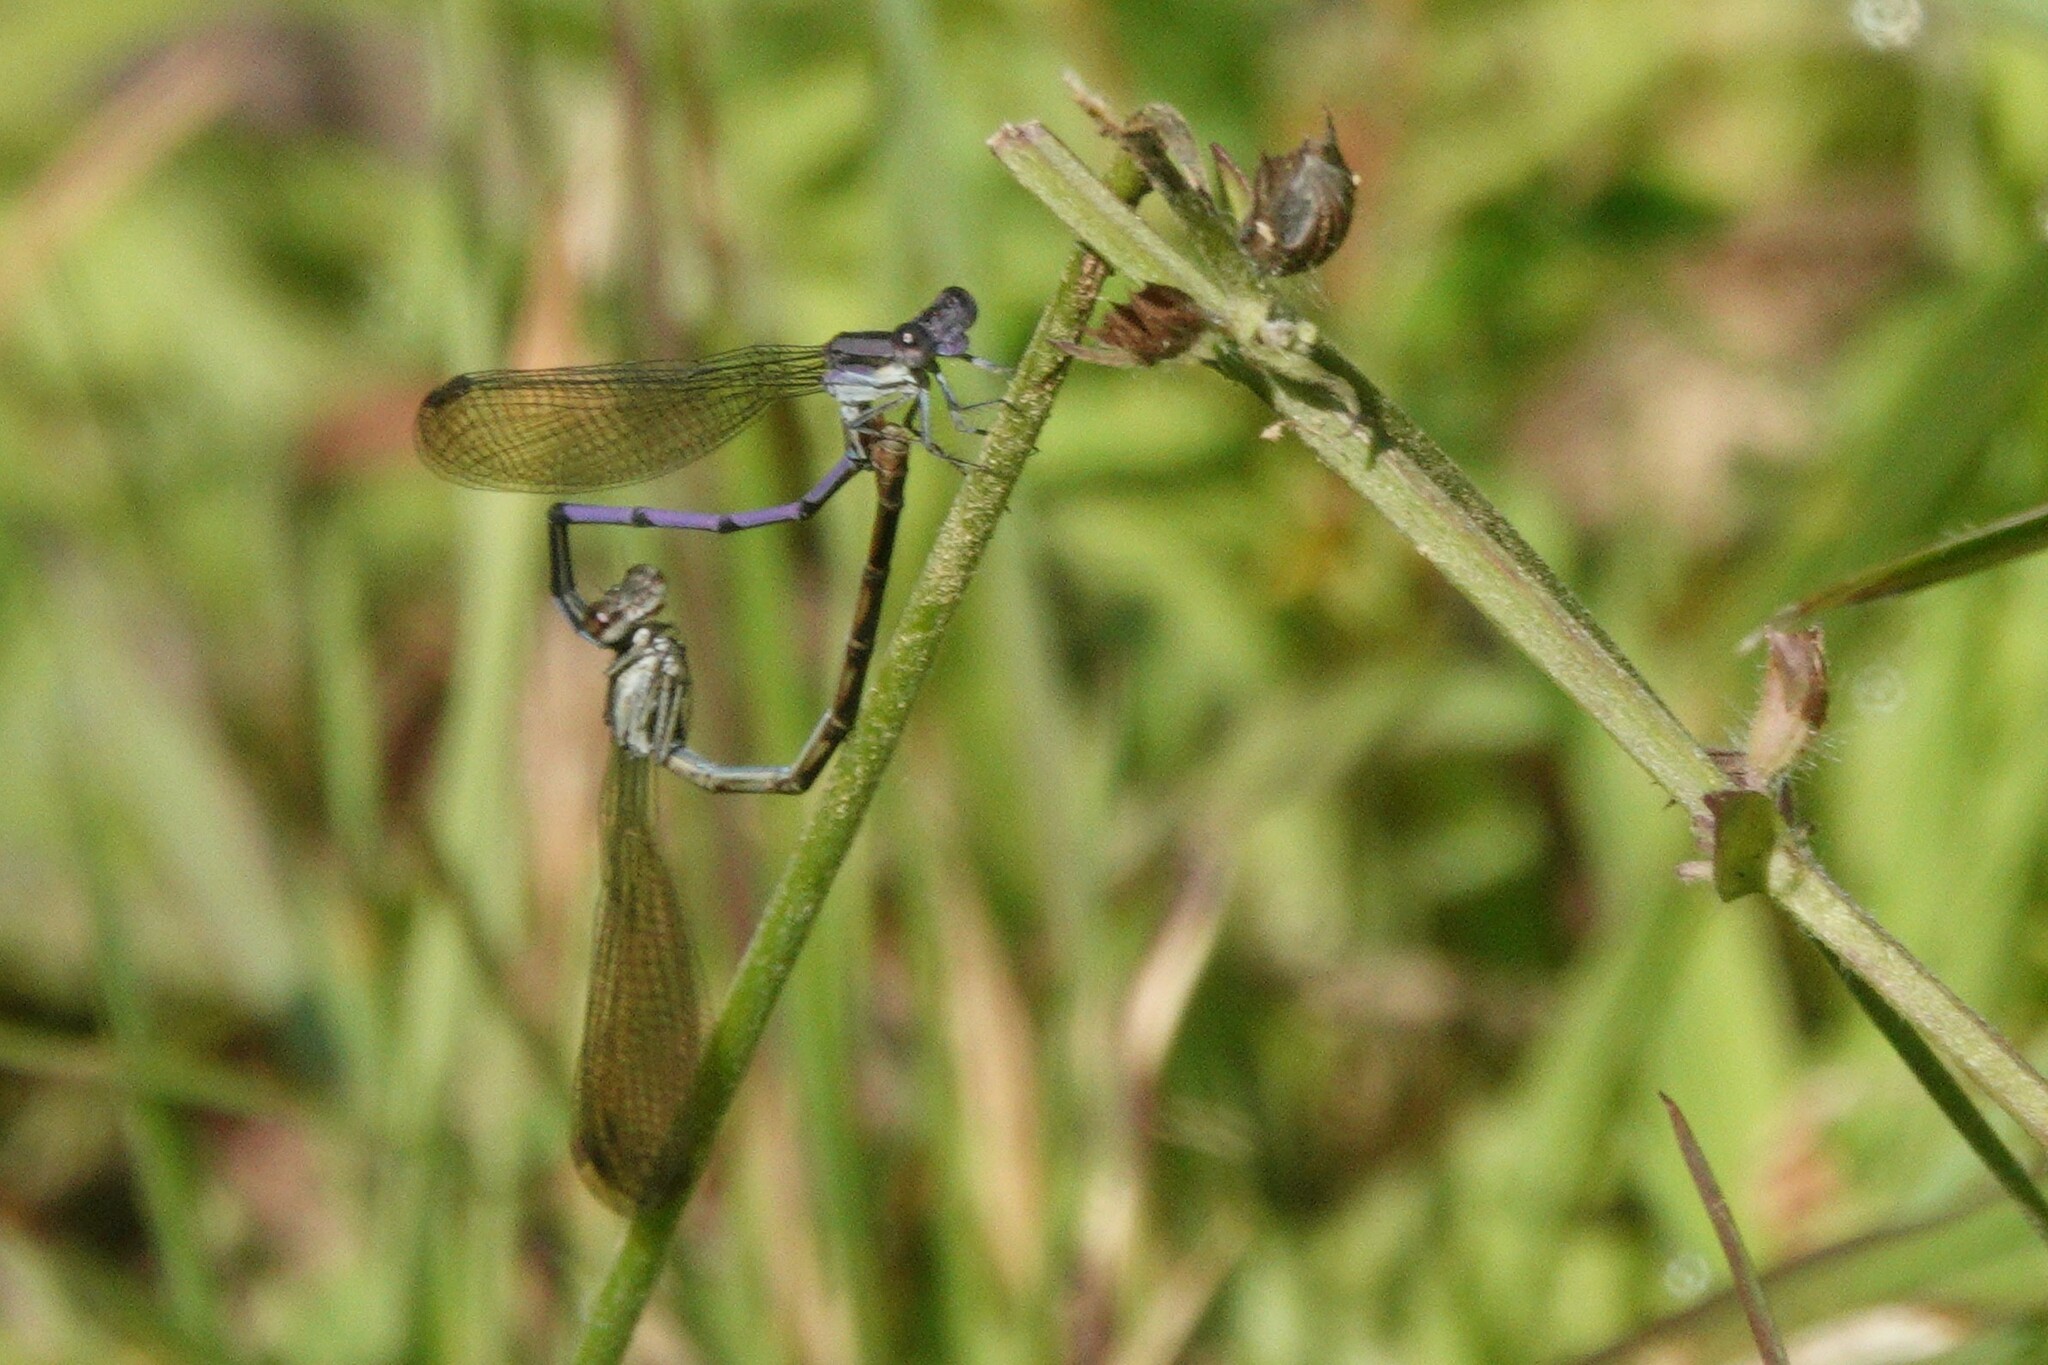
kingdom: Animalia
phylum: Arthropoda
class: Insecta
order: Odonata
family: Coenagrionidae
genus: Argia
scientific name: Argia fumipennis
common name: Variable dancer
